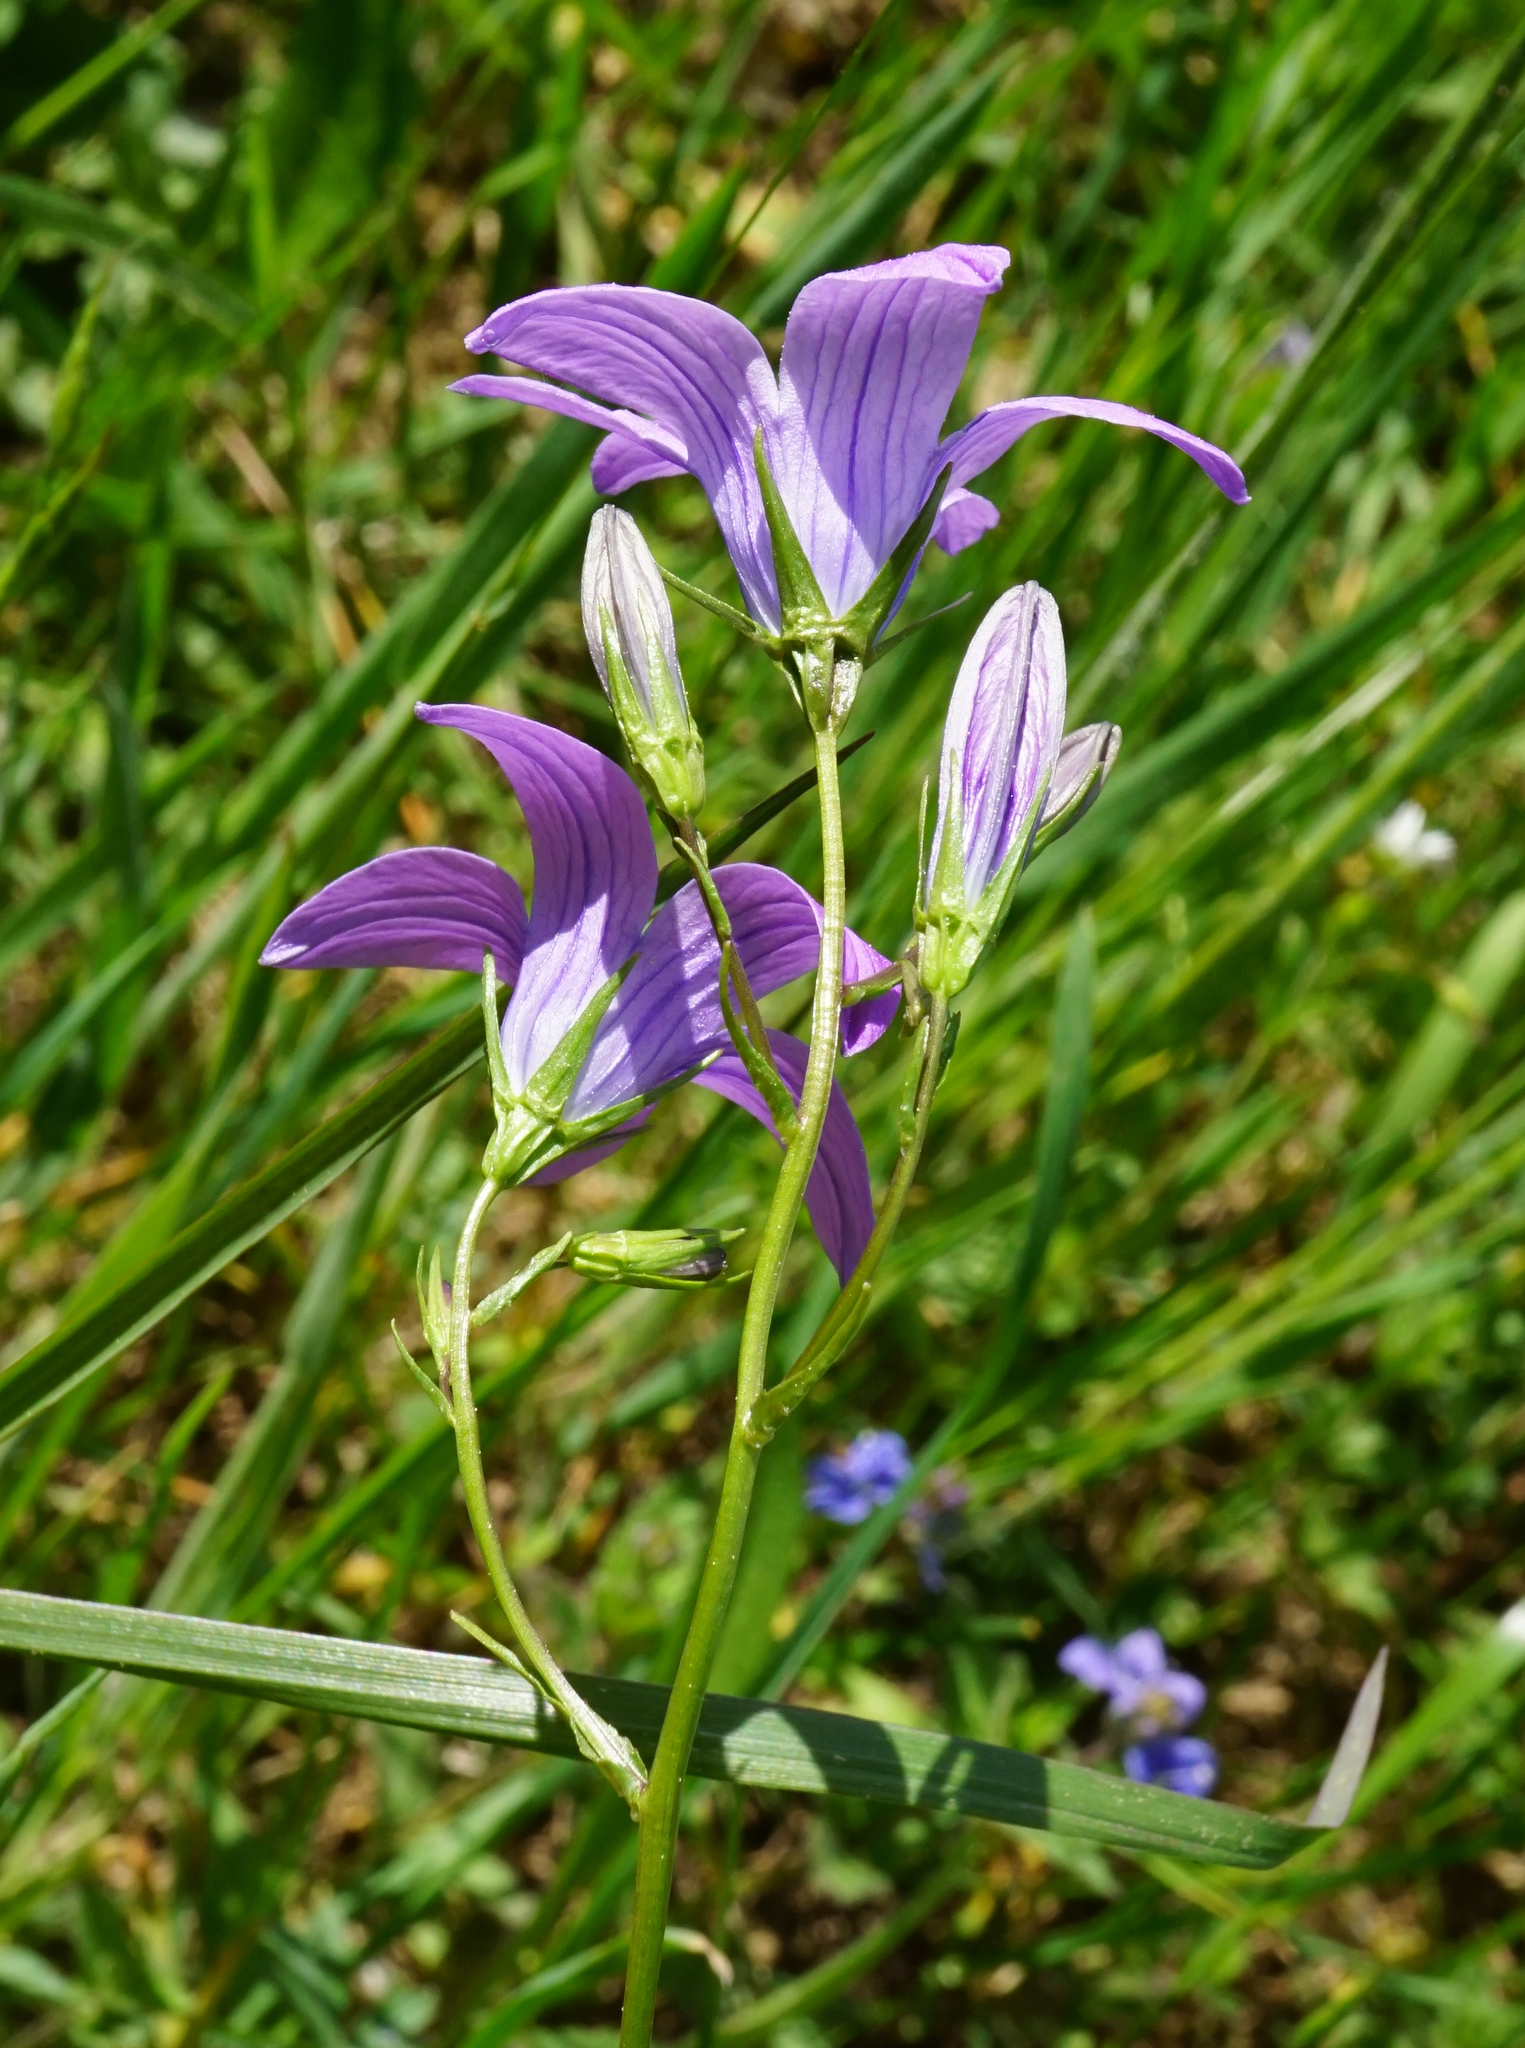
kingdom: Plantae
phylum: Tracheophyta
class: Magnoliopsida
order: Asterales
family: Campanulaceae
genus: Campanula
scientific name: Campanula patula
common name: Spreading bellflower
